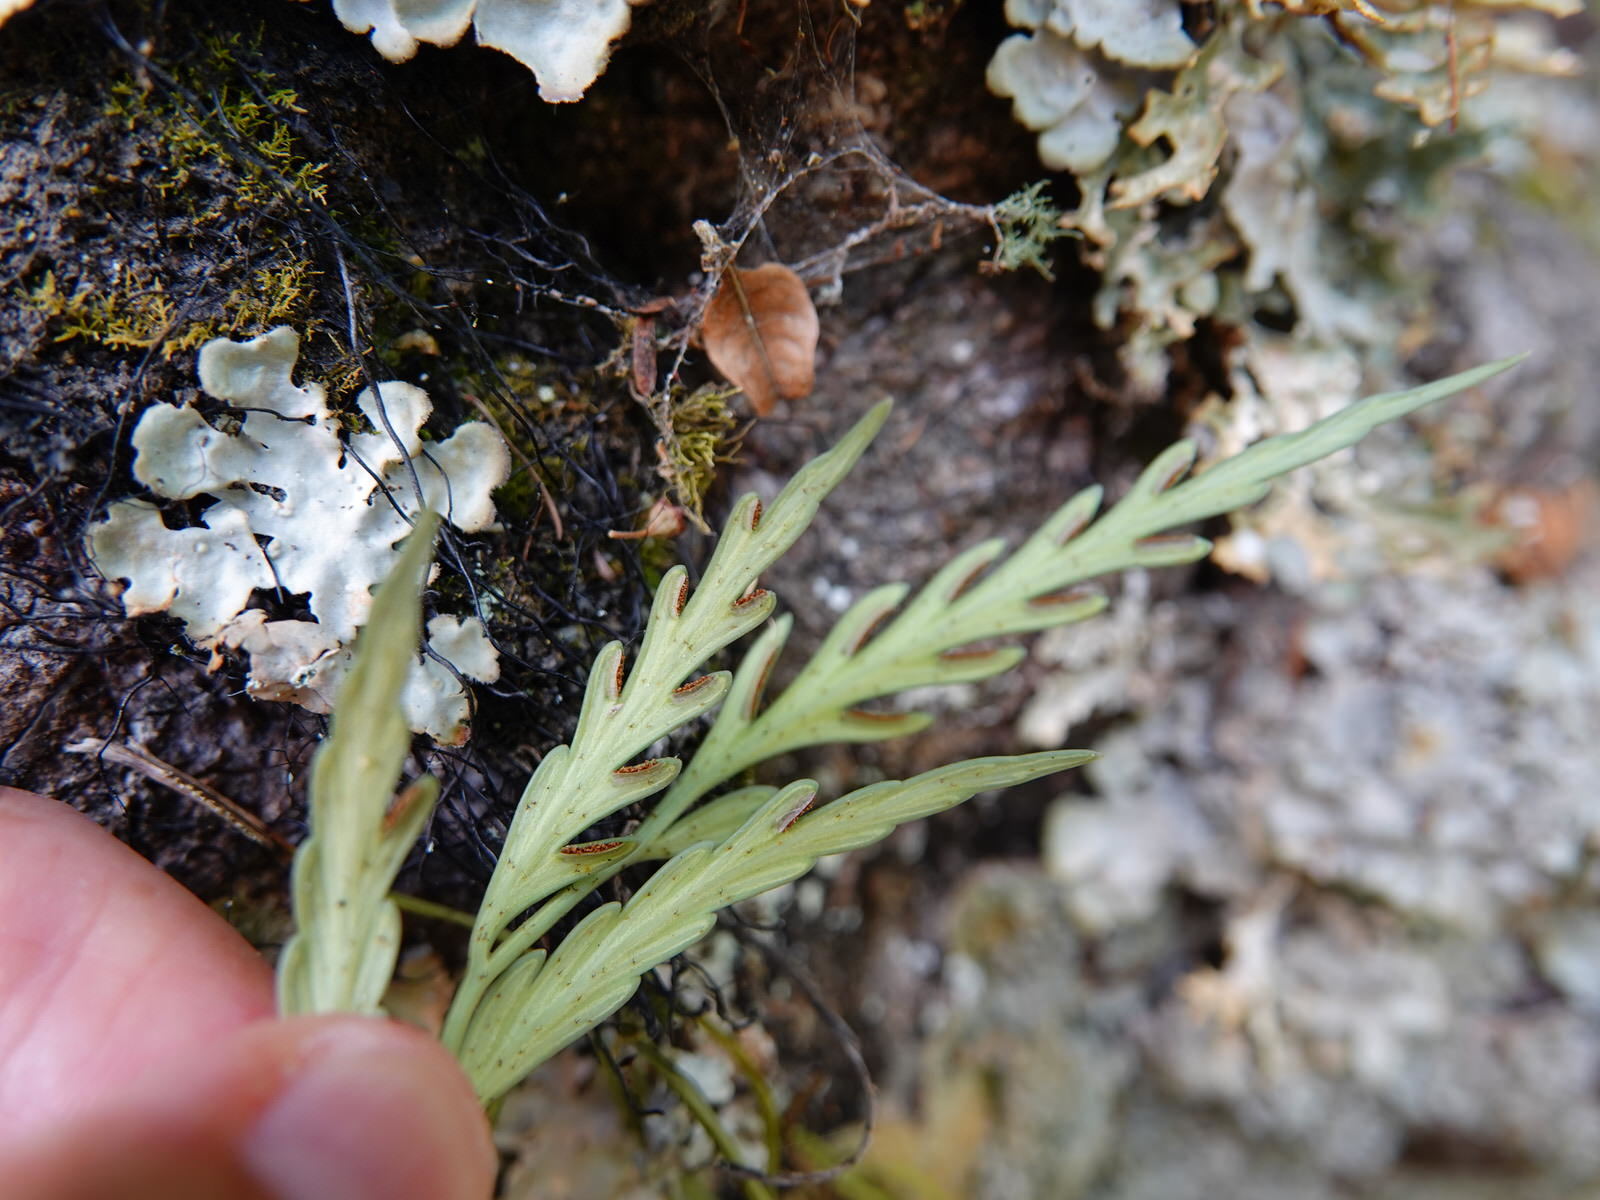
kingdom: Plantae
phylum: Tracheophyta
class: Polypodiopsida
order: Polypodiales
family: Aspleniaceae
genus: Asplenium
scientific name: Asplenium flaccidum
